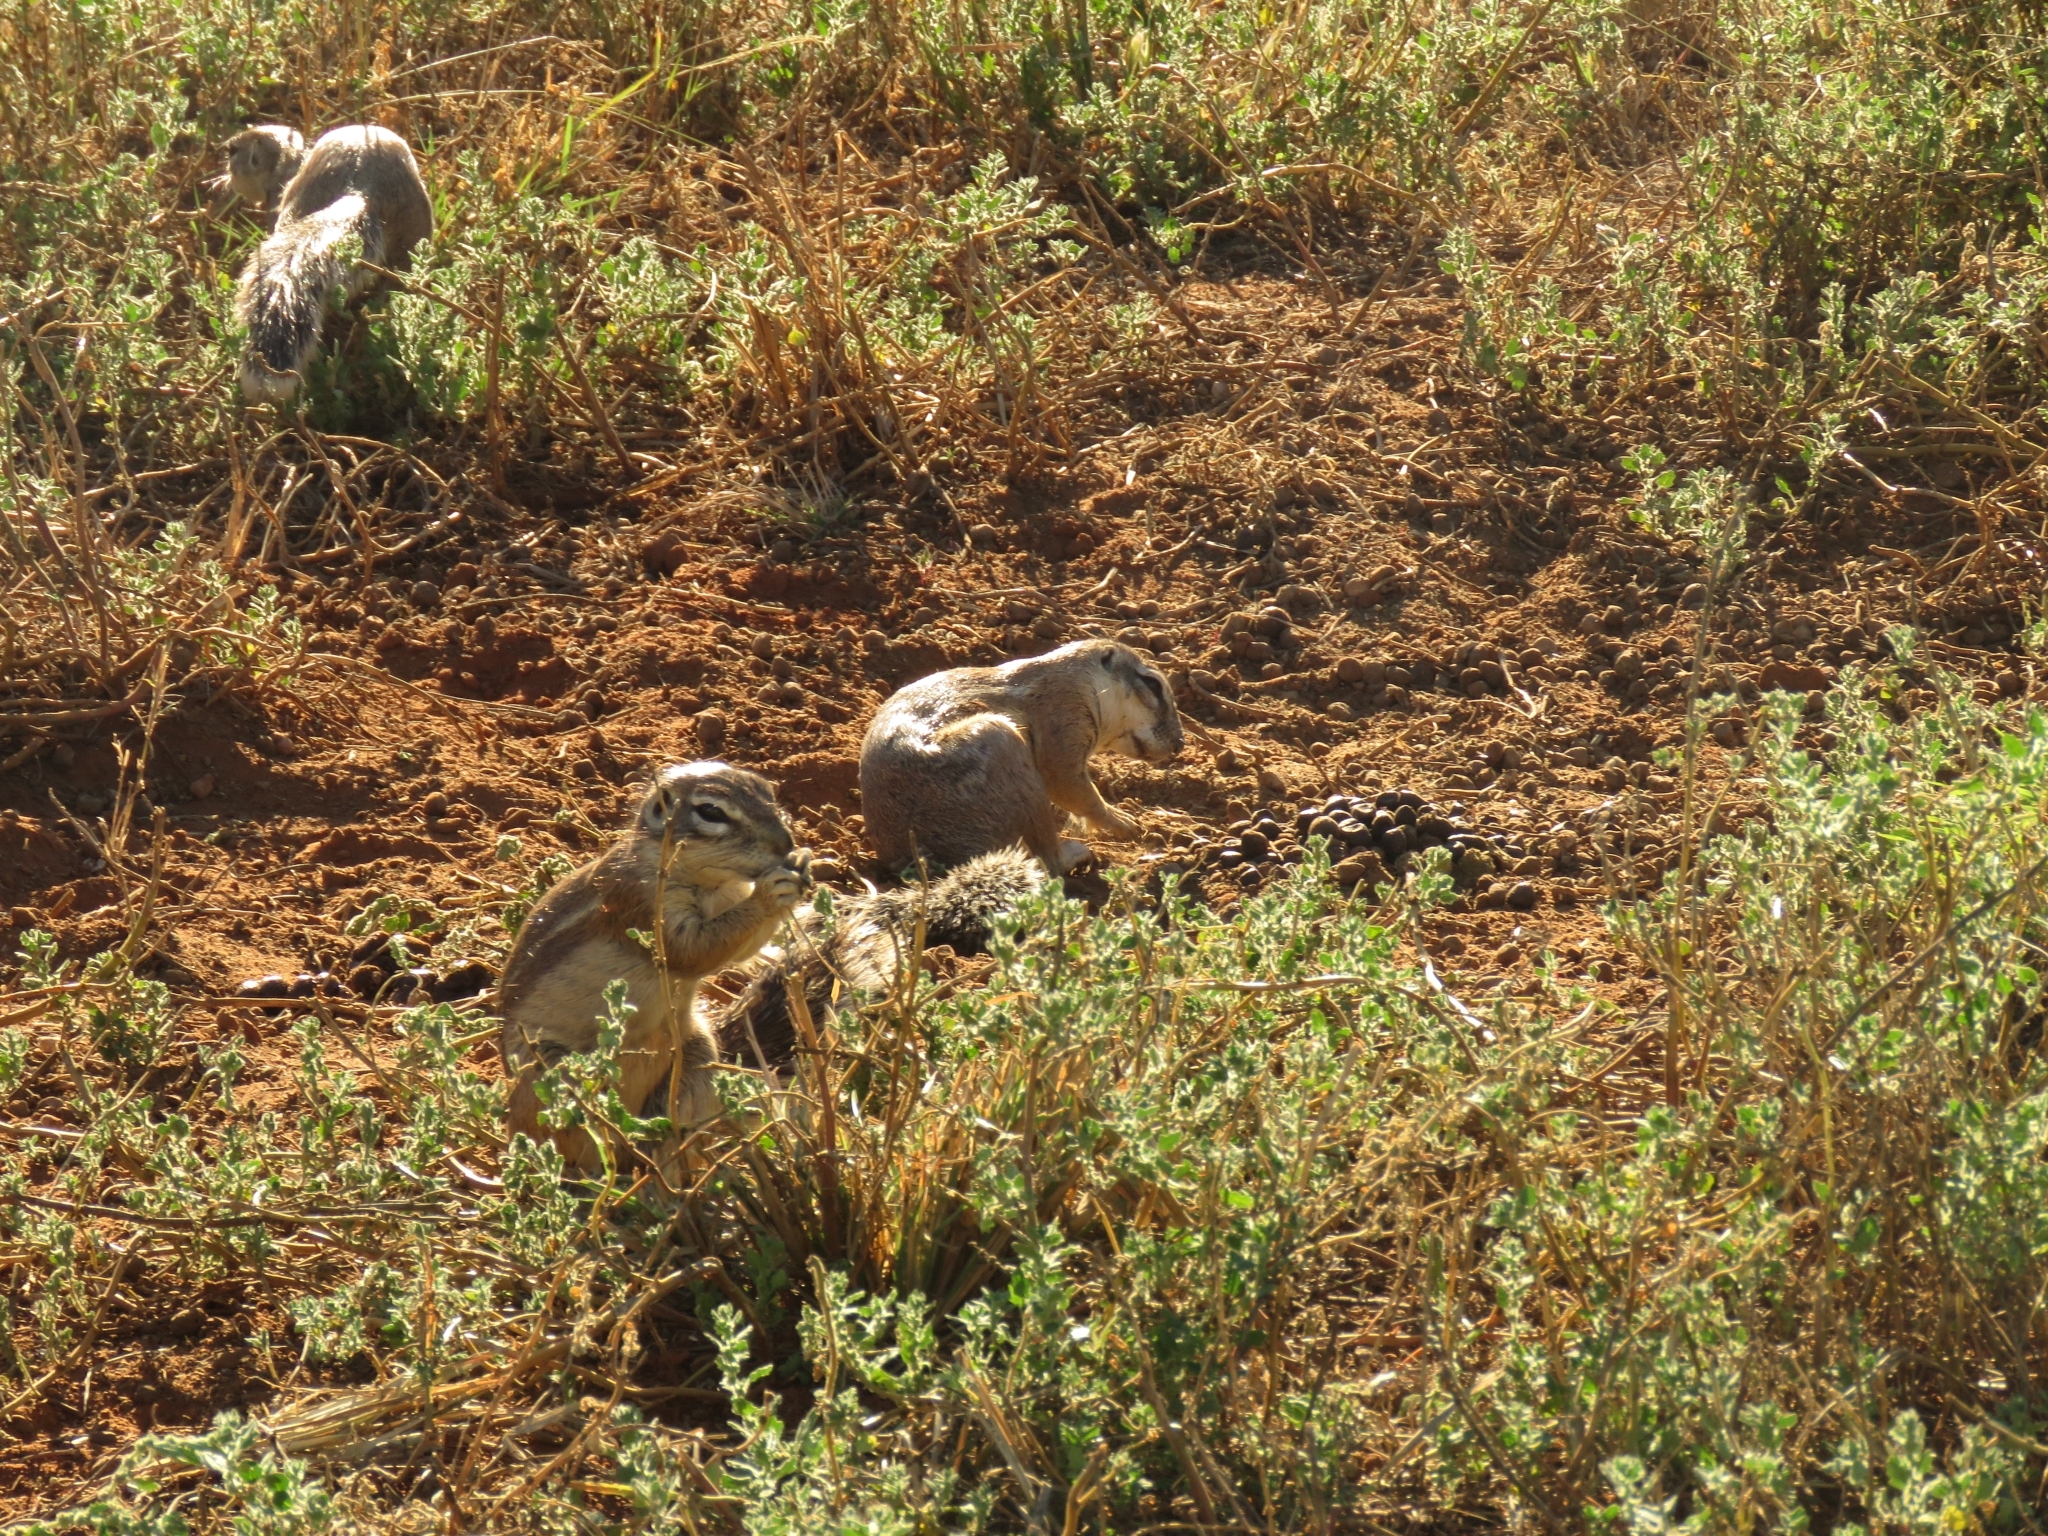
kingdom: Animalia
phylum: Chordata
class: Mammalia
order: Rodentia
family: Sciuridae
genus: Xerus
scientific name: Xerus inauris
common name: South african ground squirrel
